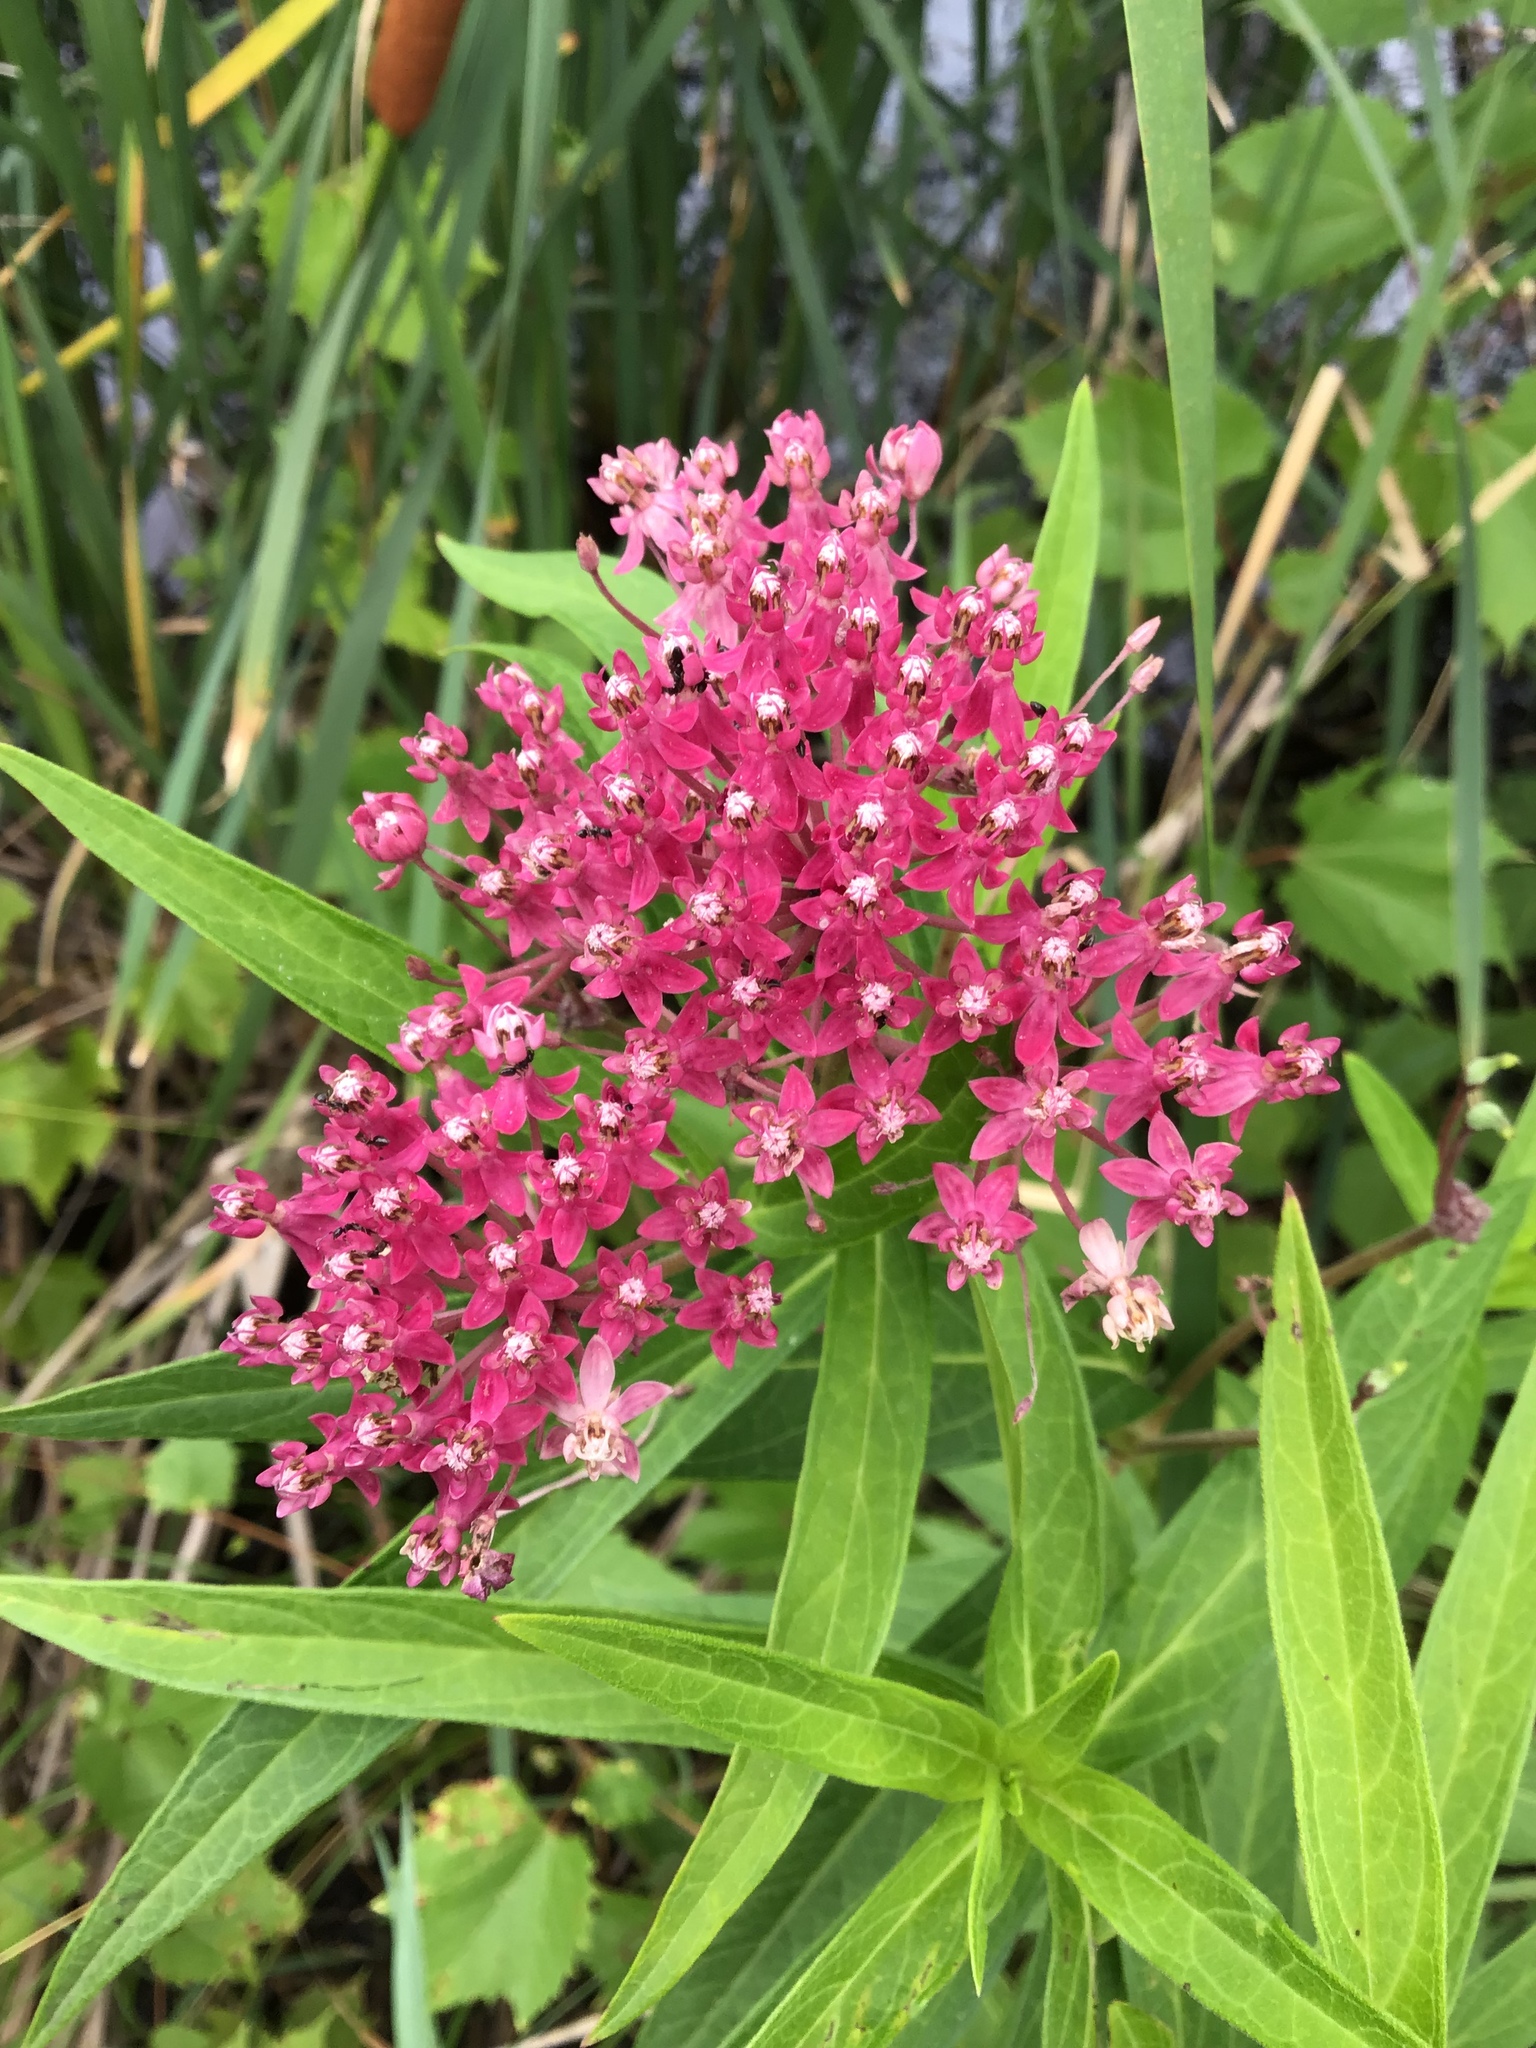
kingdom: Plantae
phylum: Tracheophyta
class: Magnoliopsida
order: Gentianales
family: Apocynaceae
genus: Asclepias
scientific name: Asclepias incarnata
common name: Swamp milkweed
